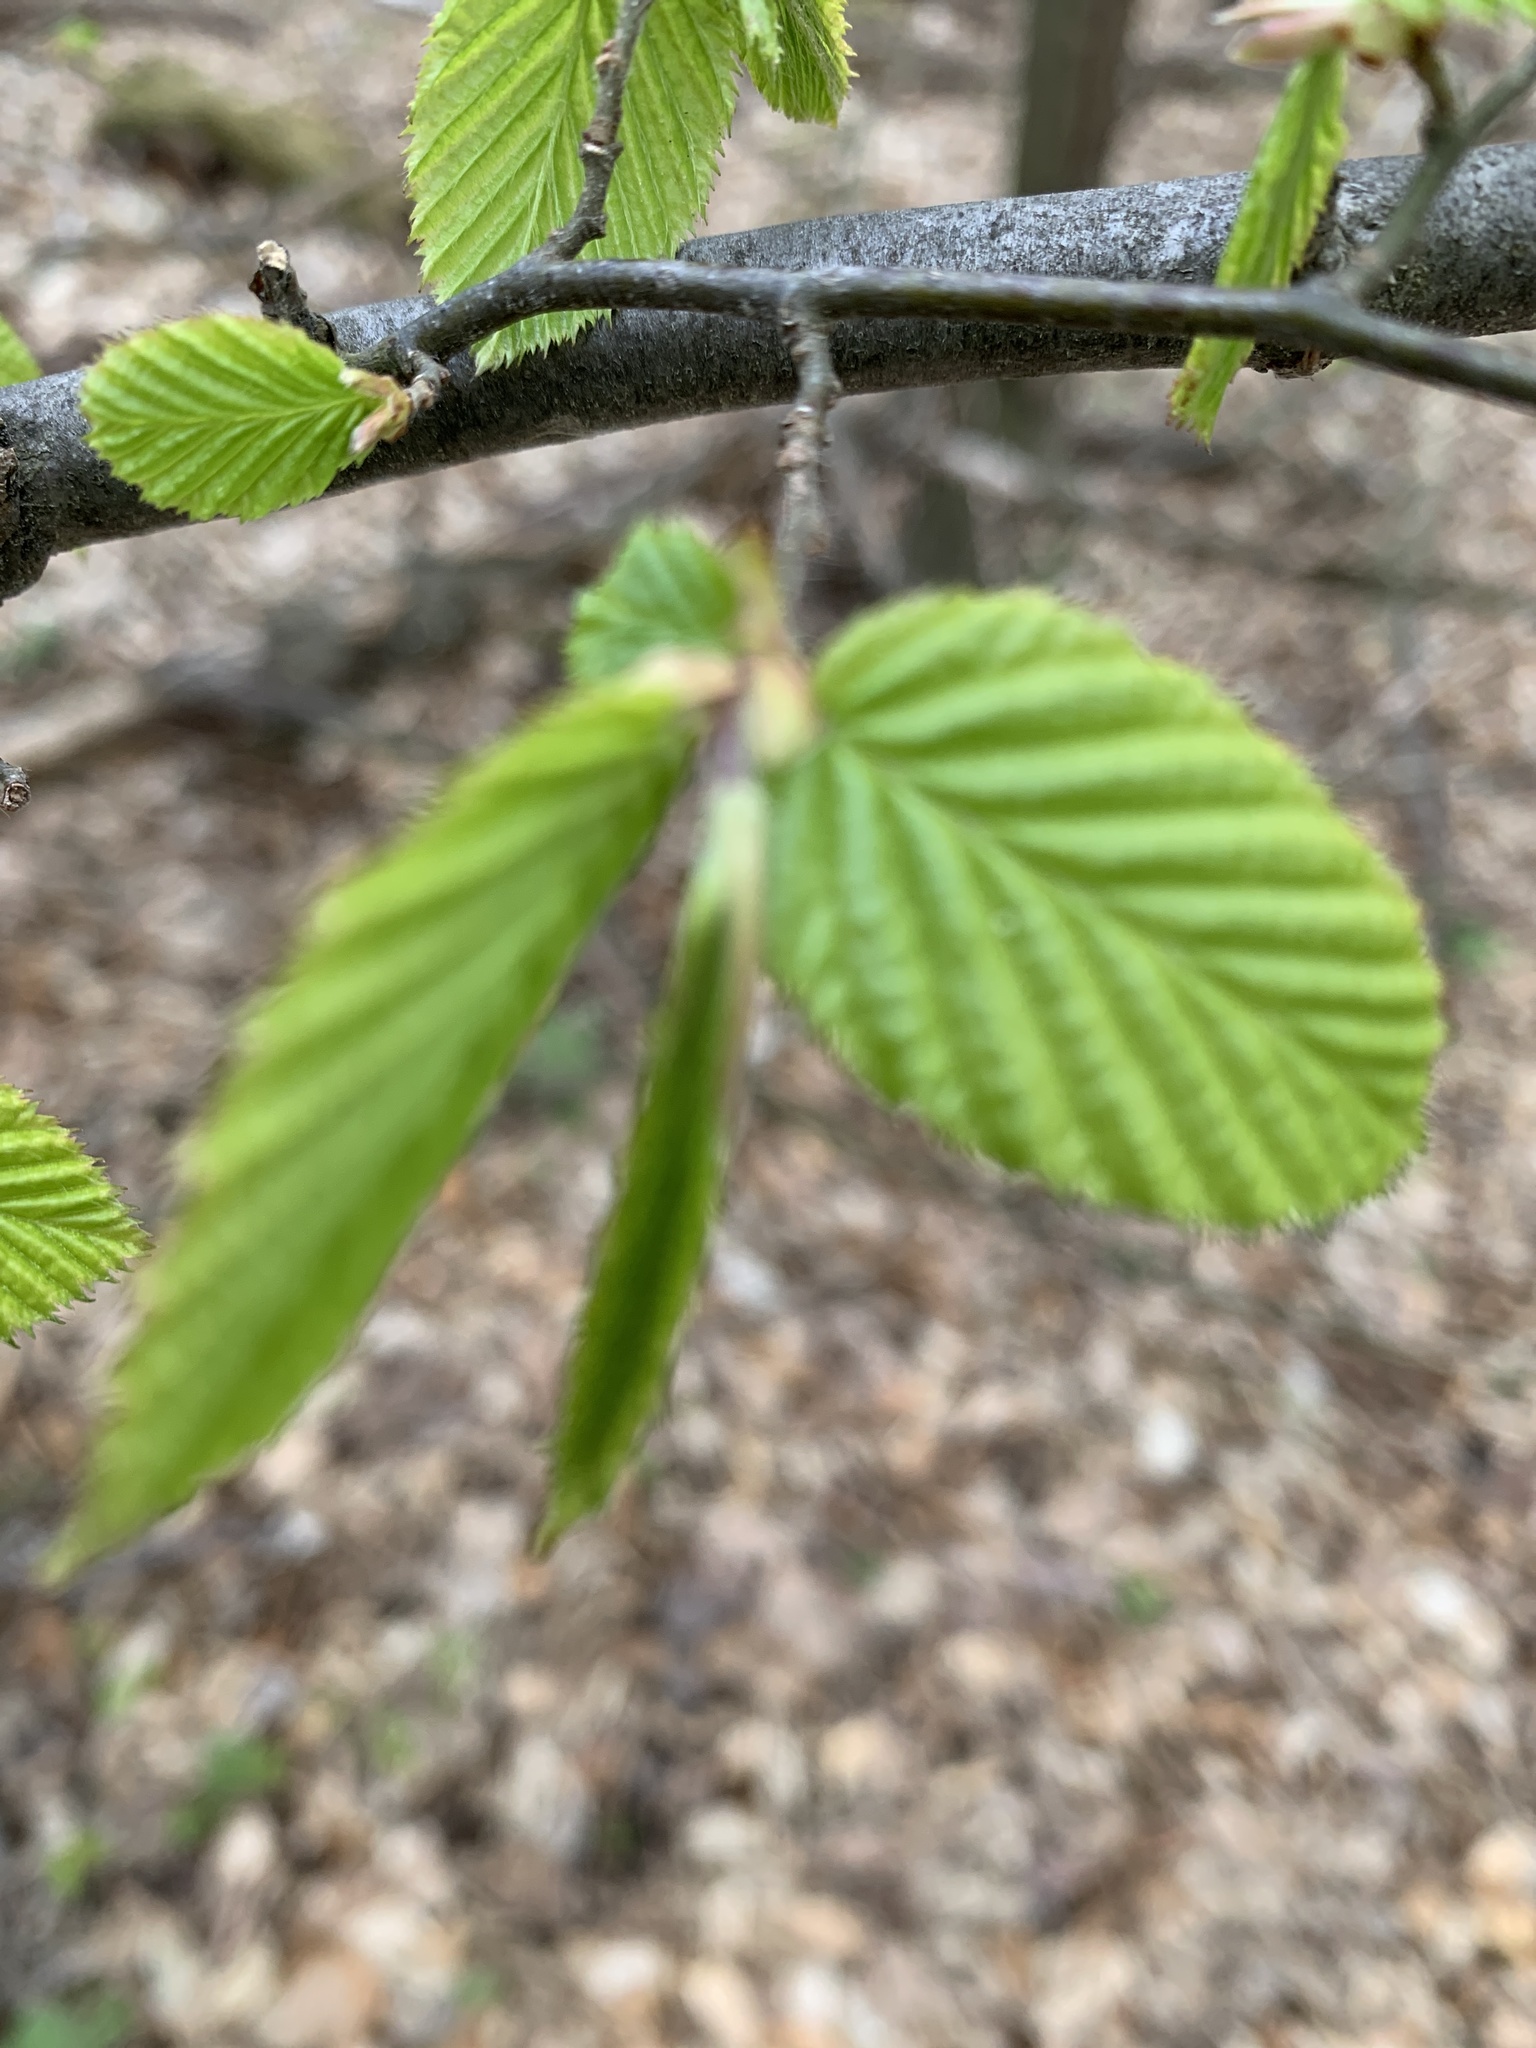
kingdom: Plantae
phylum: Tracheophyta
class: Magnoliopsida
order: Fagales
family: Betulaceae
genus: Carpinus
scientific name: Carpinus betulus
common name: Hornbeam
